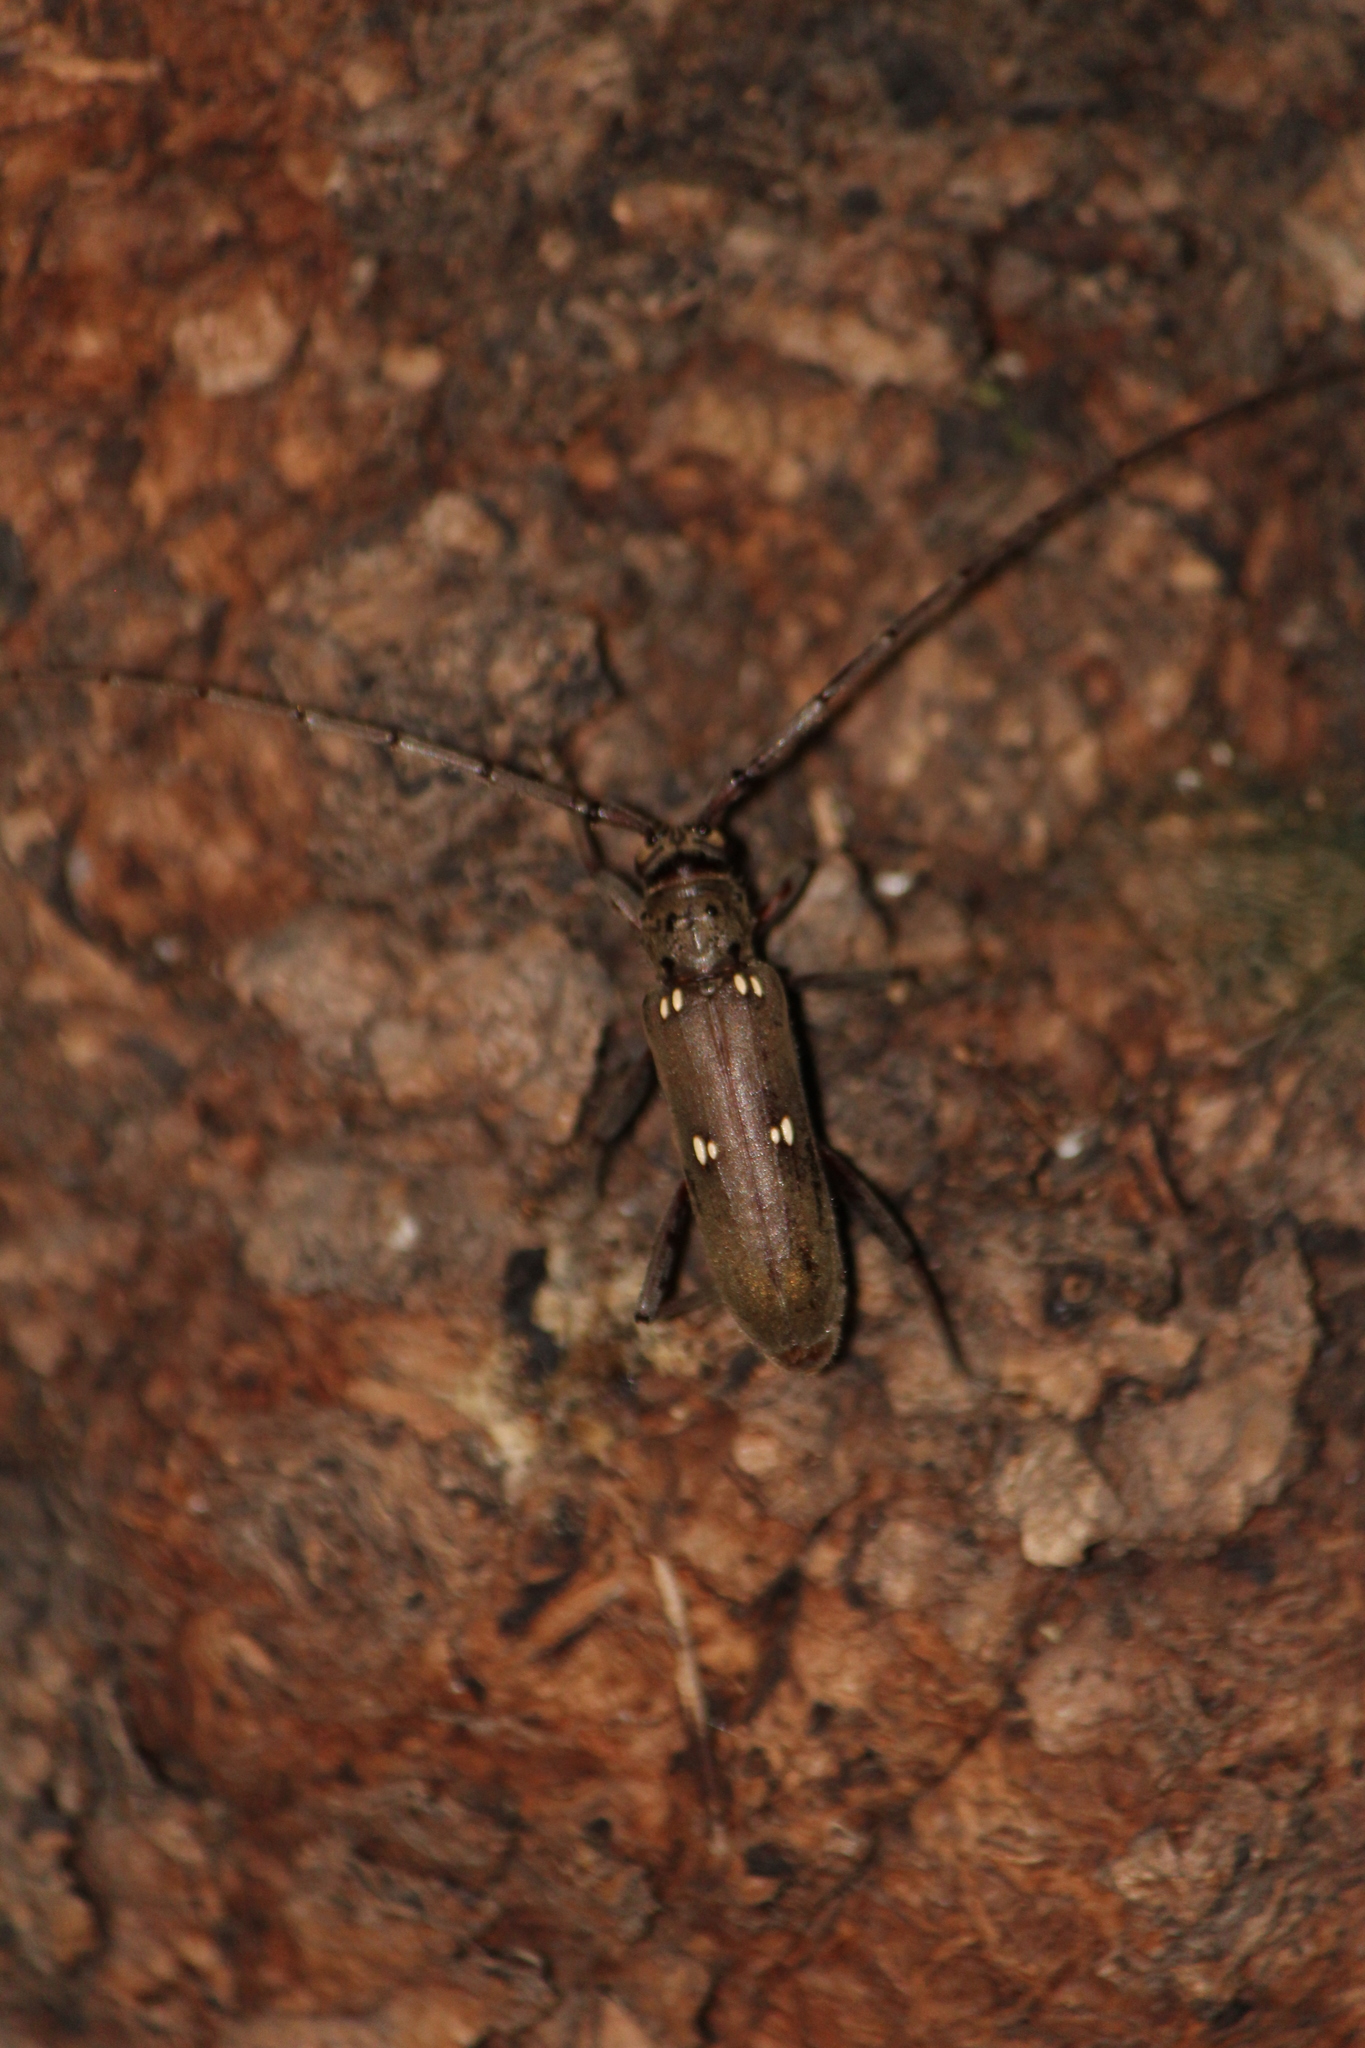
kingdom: Animalia
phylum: Arthropoda
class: Insecta
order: Coleoptera
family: Cerambycidae
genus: Susuacanga
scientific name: Susuacanga patruelis
